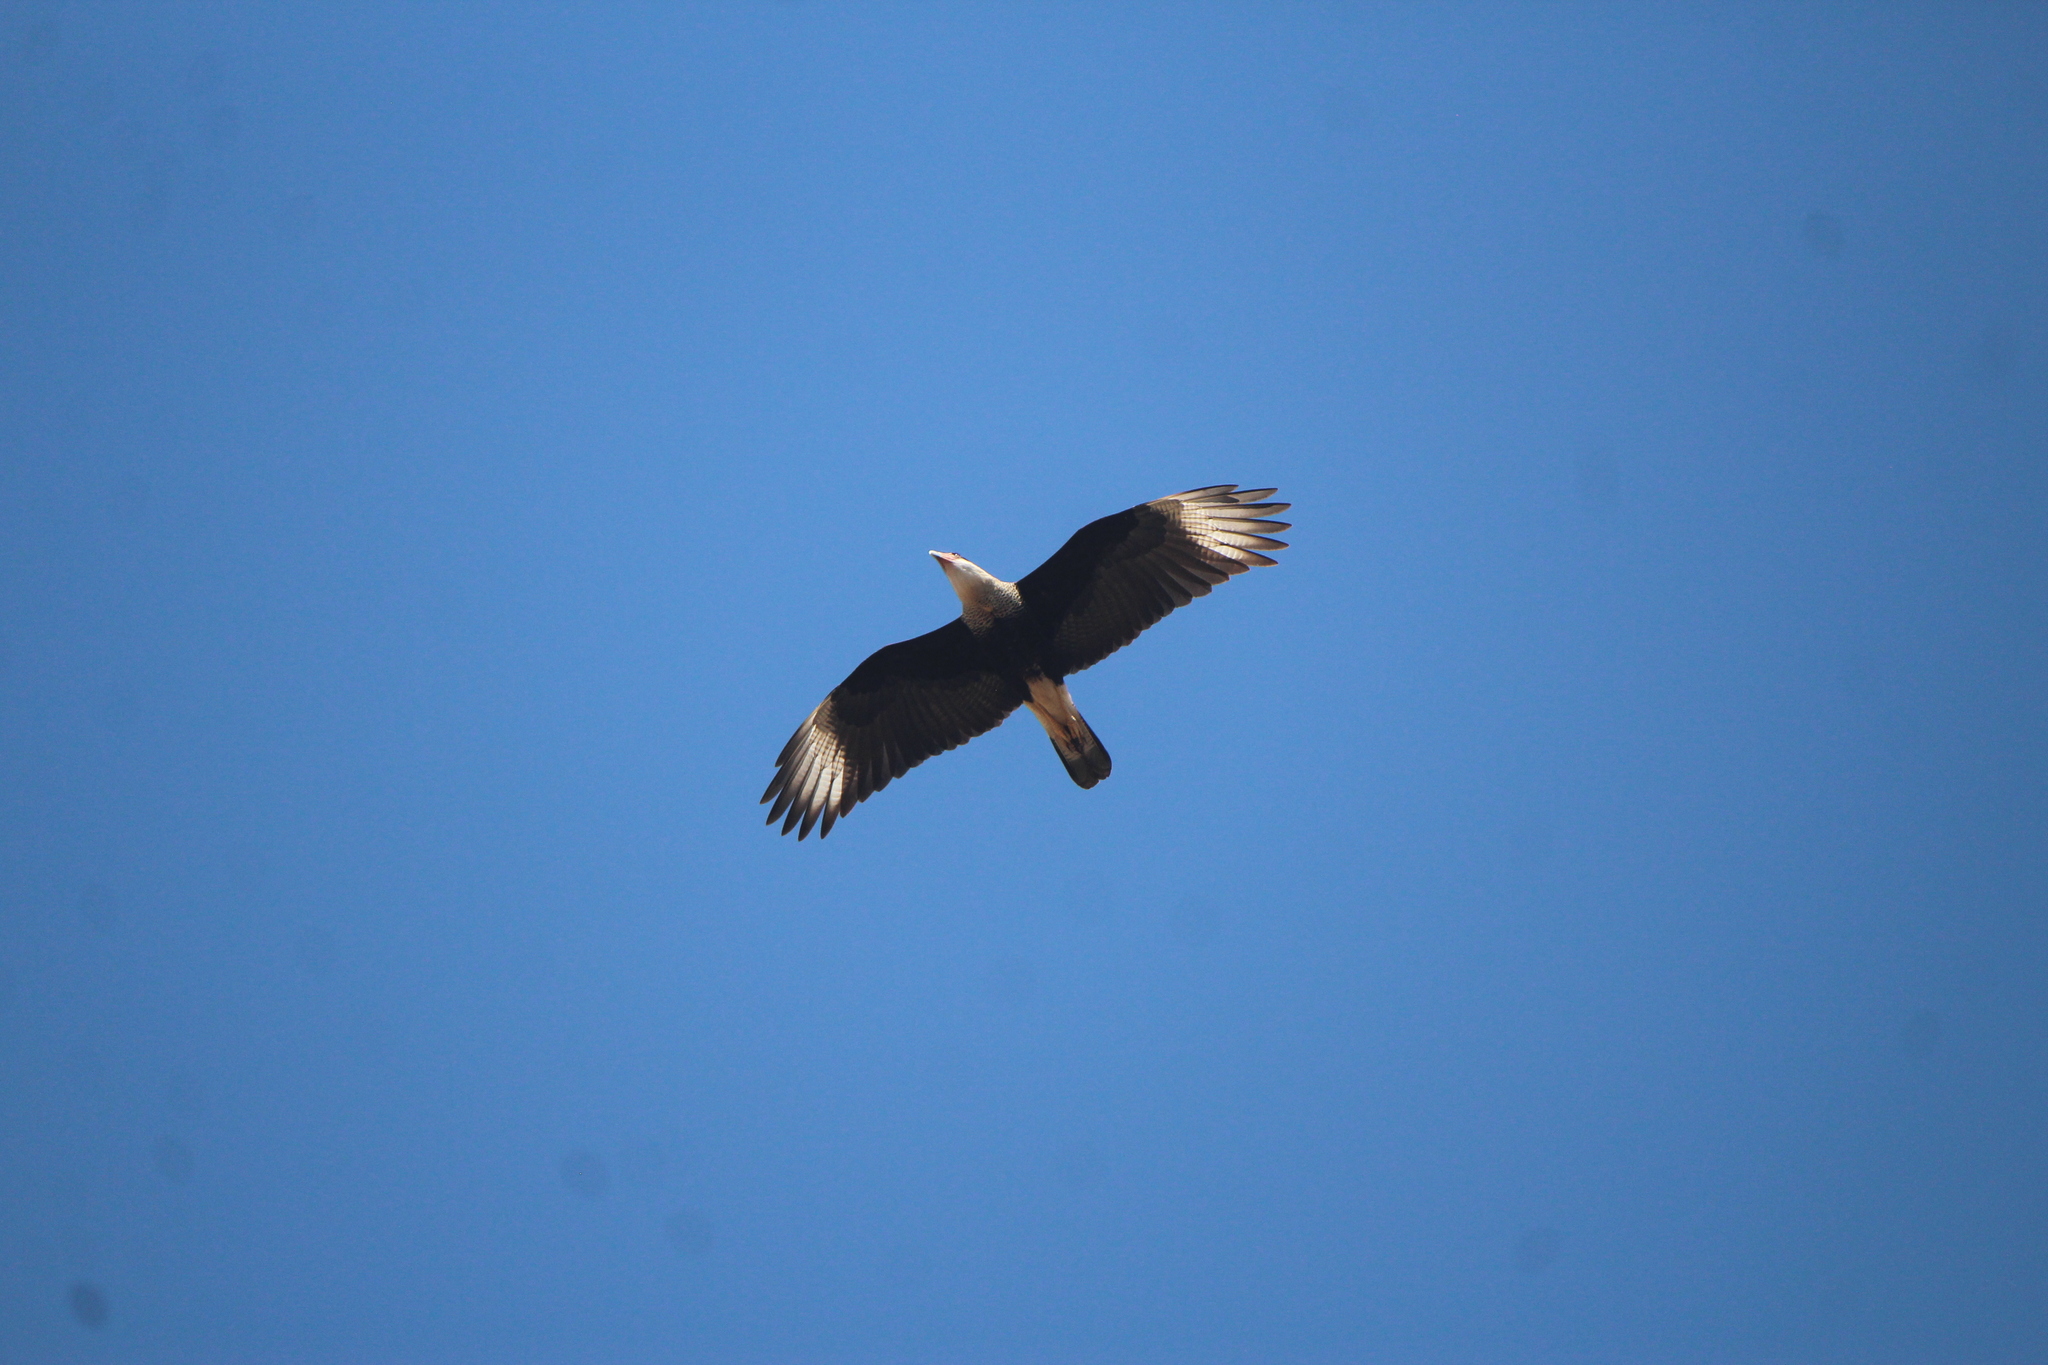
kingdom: Animalia
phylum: Chordata
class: Aves
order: Falconiformes
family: Falconidae
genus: Caracara
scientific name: Caracara plancus
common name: Southern caracara
